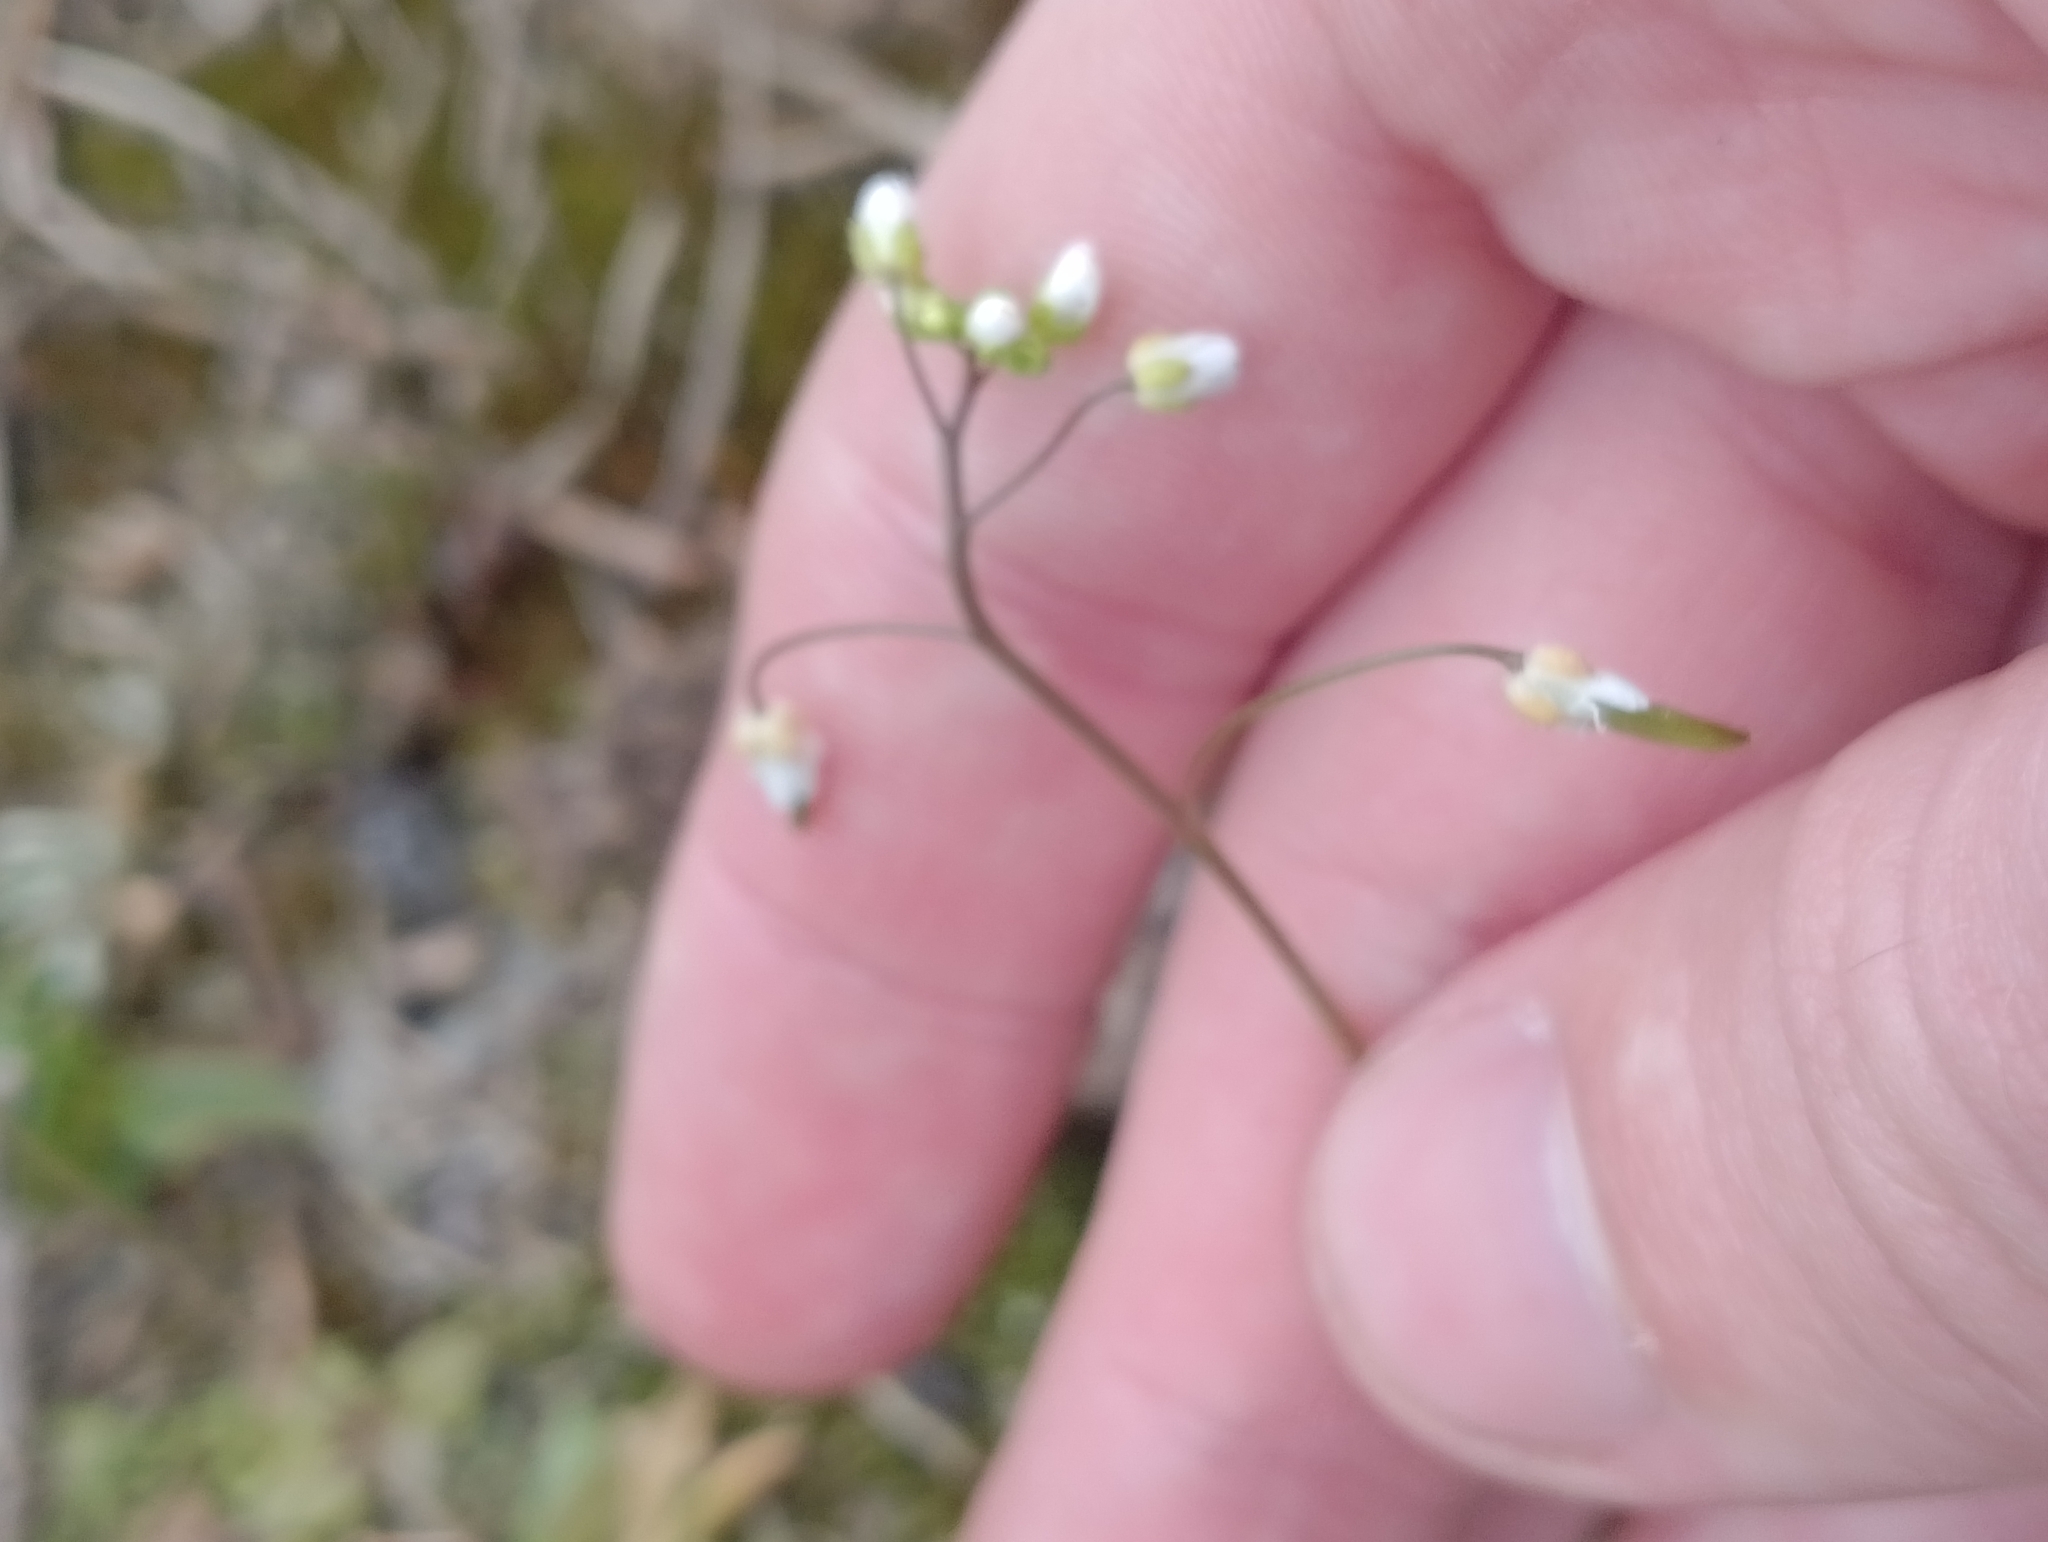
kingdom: Plantae
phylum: Tracheophyta
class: Magnoliopsida
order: Brassicales
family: Brassicaceae
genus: Draba
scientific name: Draba verna
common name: Spring draba
